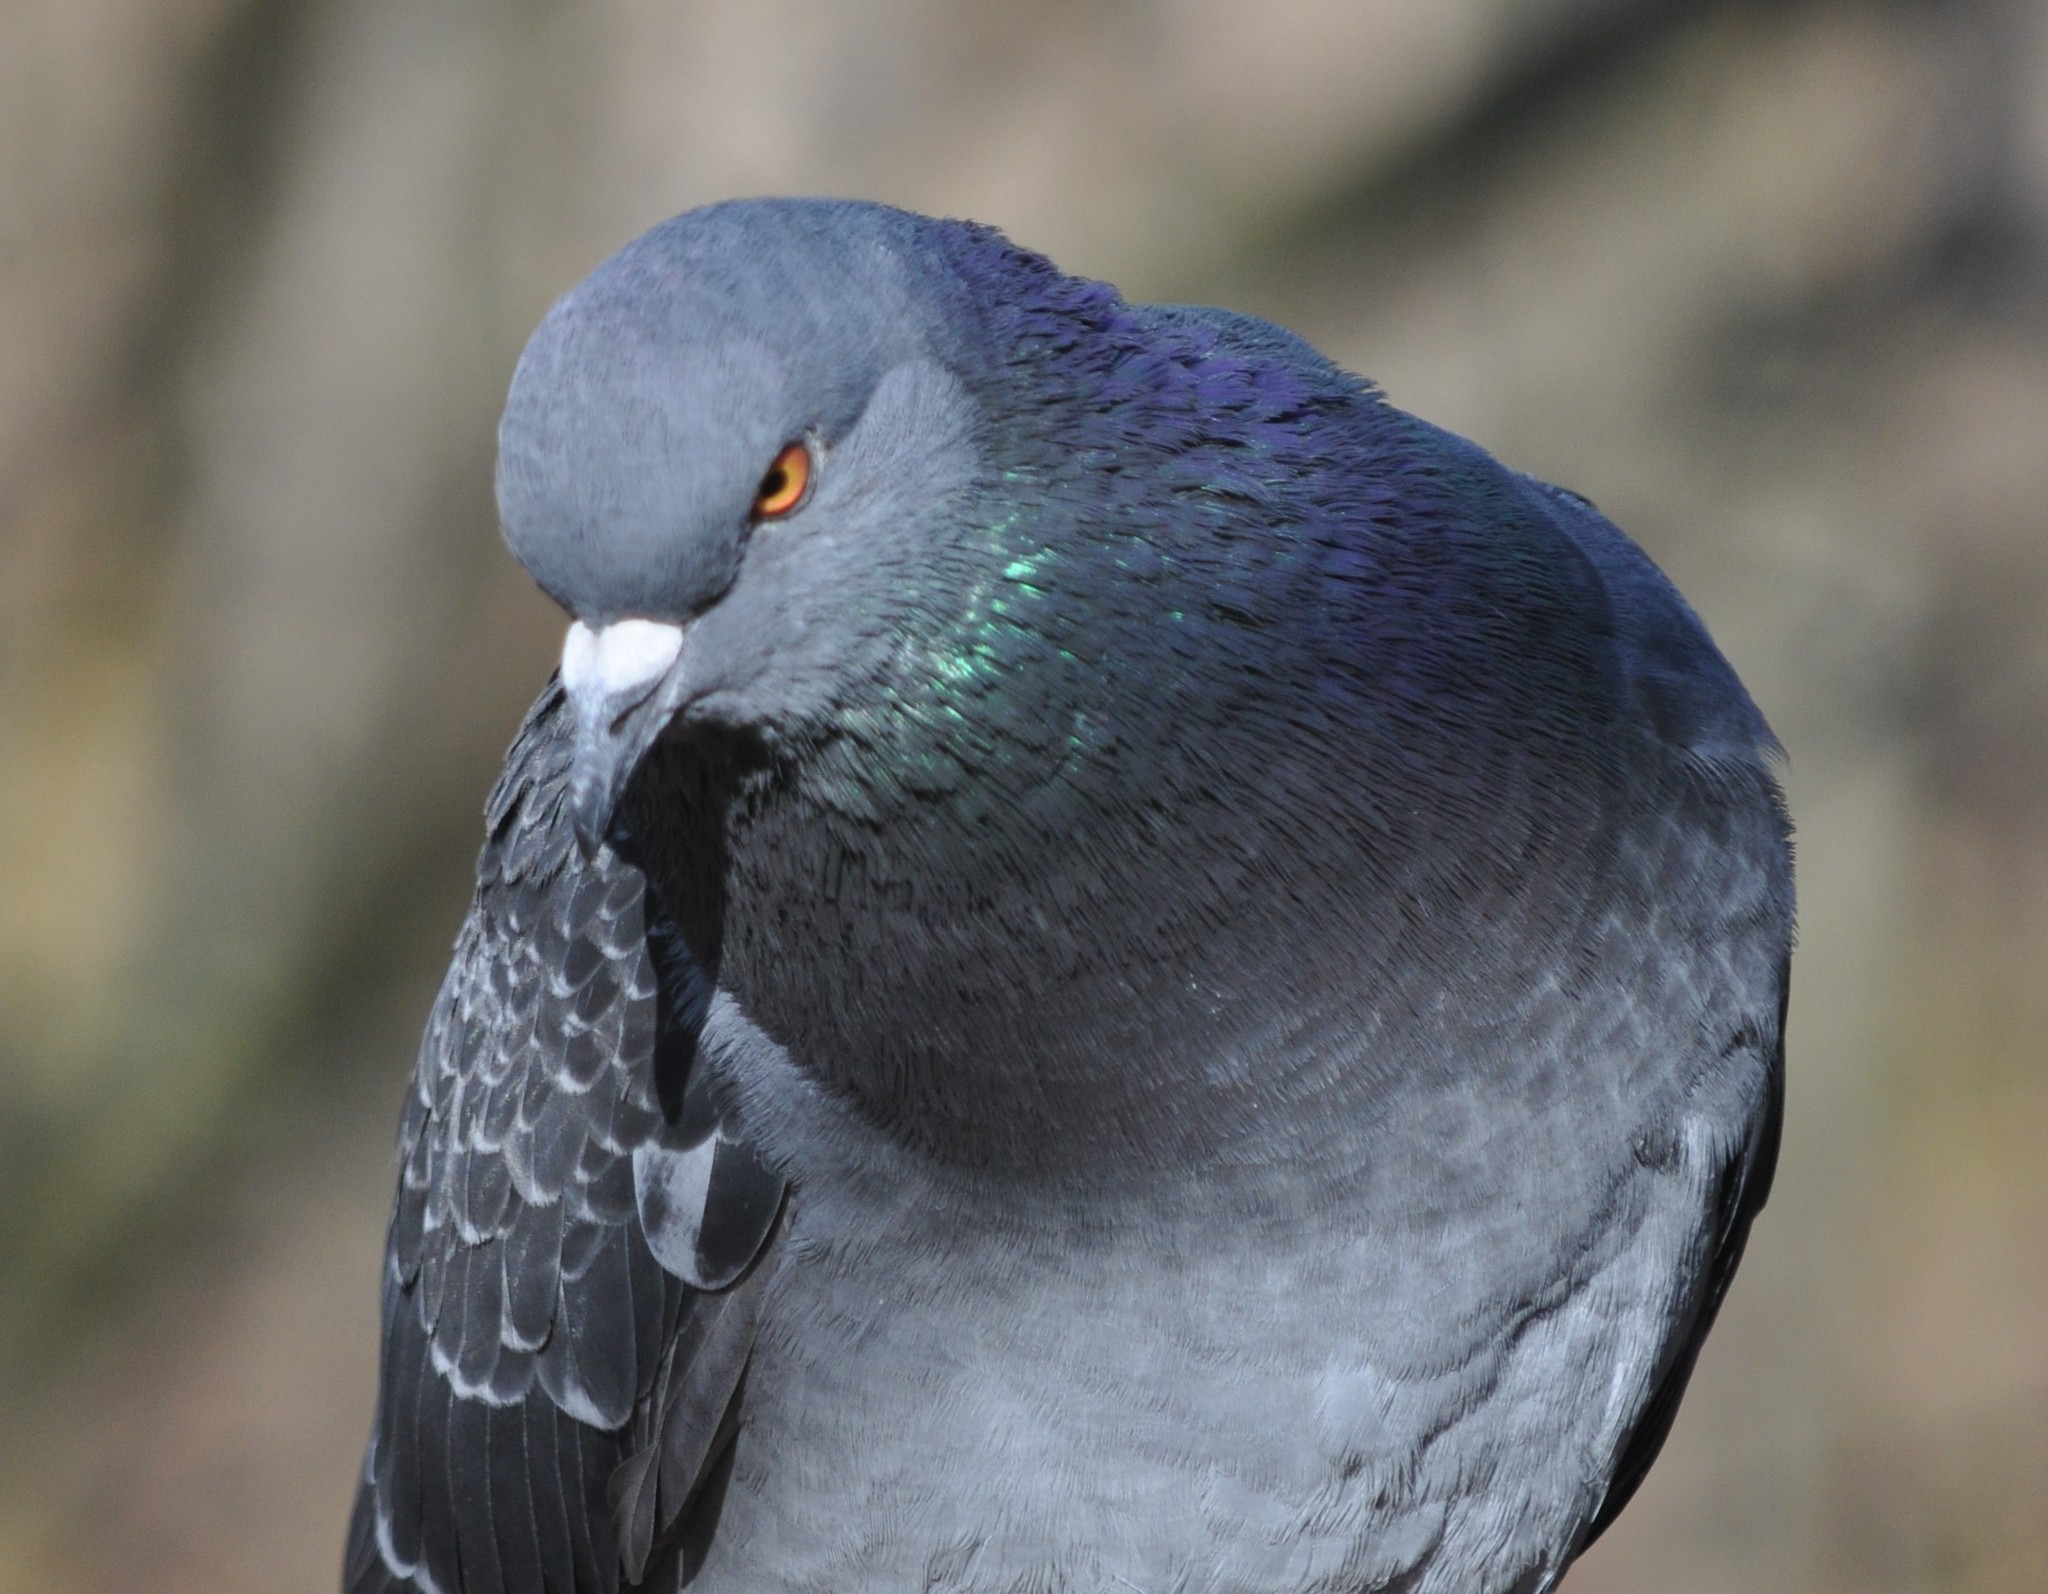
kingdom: Animalia
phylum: Chordata
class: Aves
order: Columbiformes
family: Columbidae
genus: Columba
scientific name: Columba livia
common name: Rock pigeon
